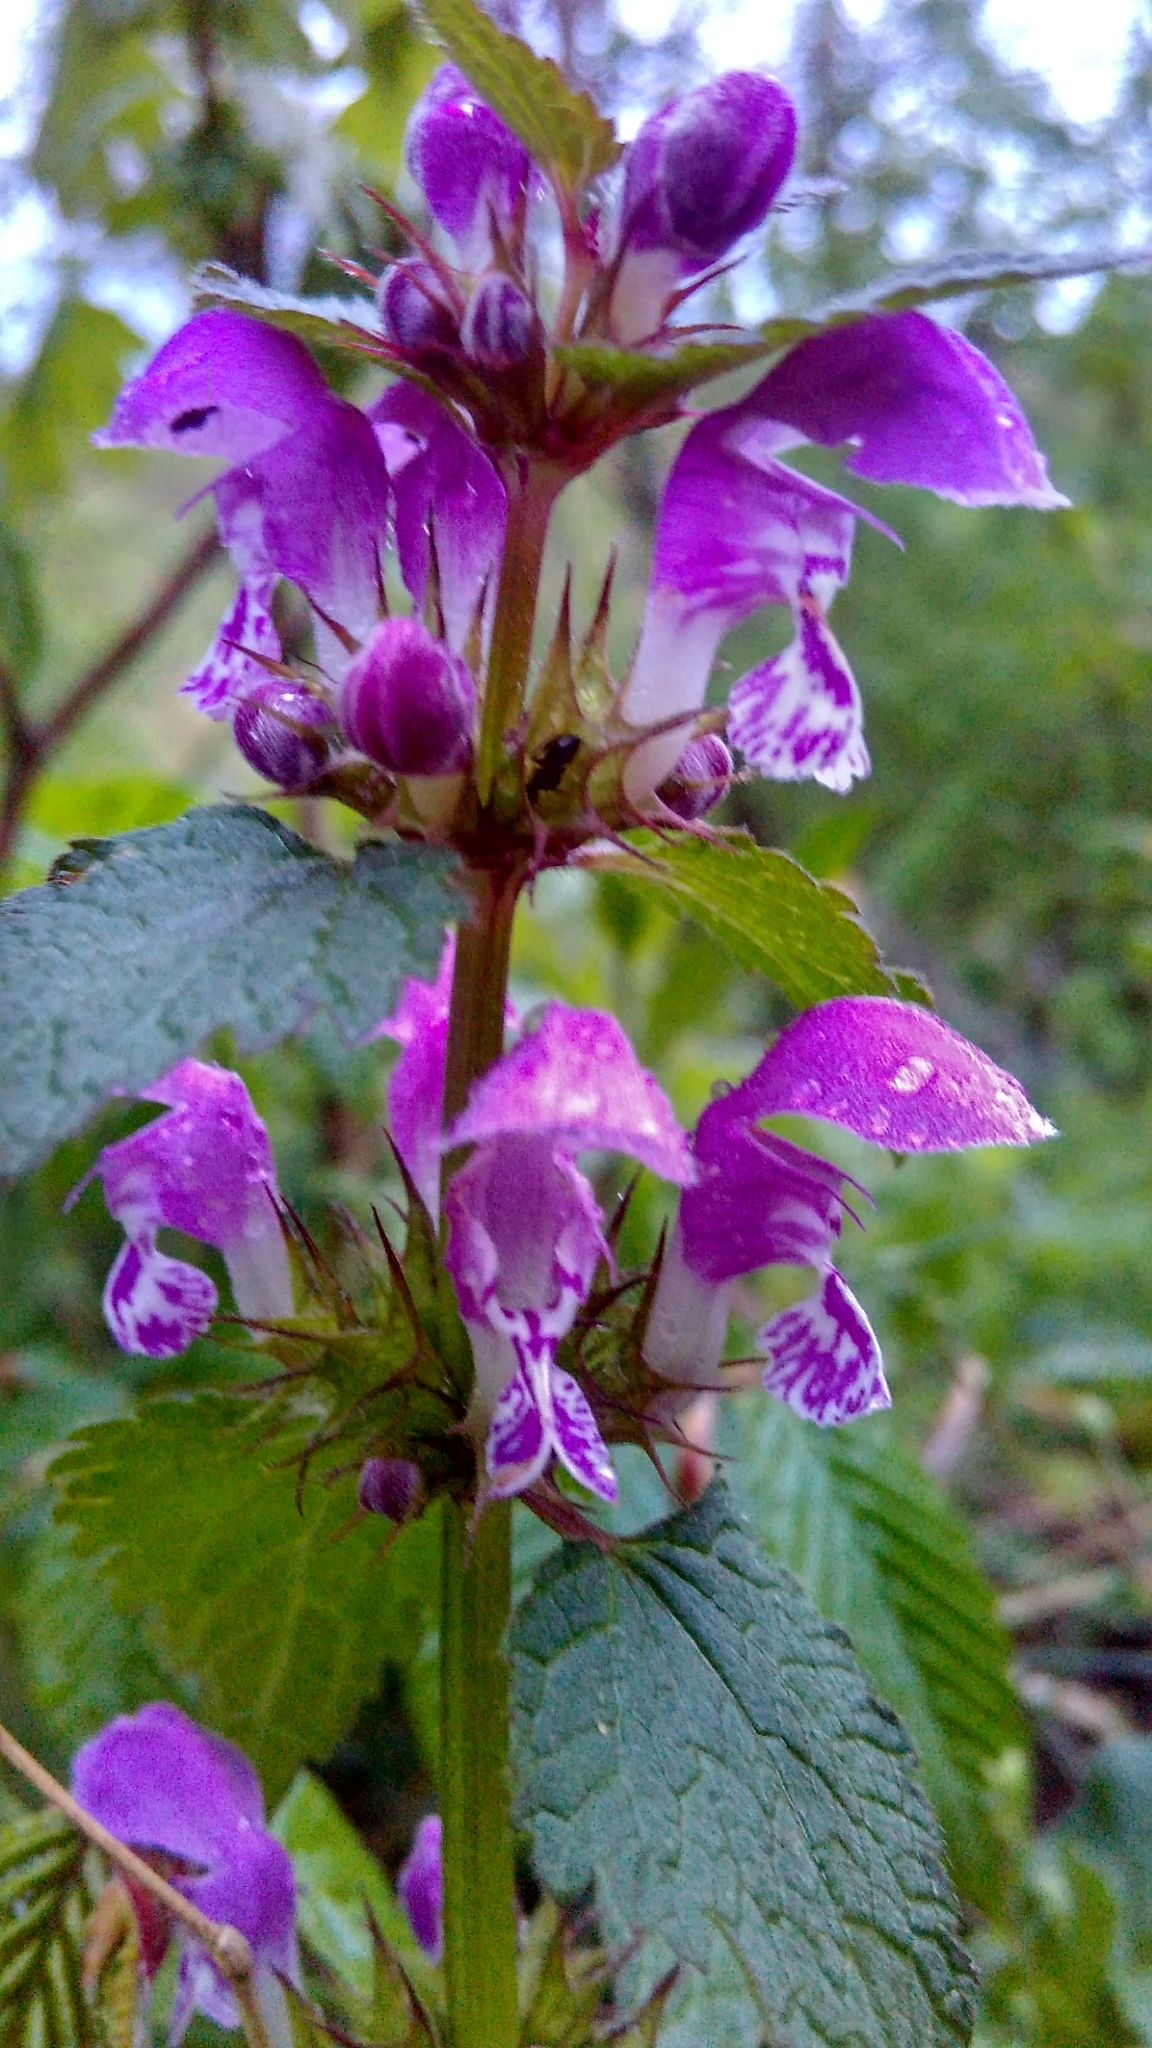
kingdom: Plantae
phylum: Tracheophyta
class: Magnoliopsida
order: Lamiales
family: Lamiaceae
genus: Lamium
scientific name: Lamium maculatum
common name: Spotted dead-nettle
